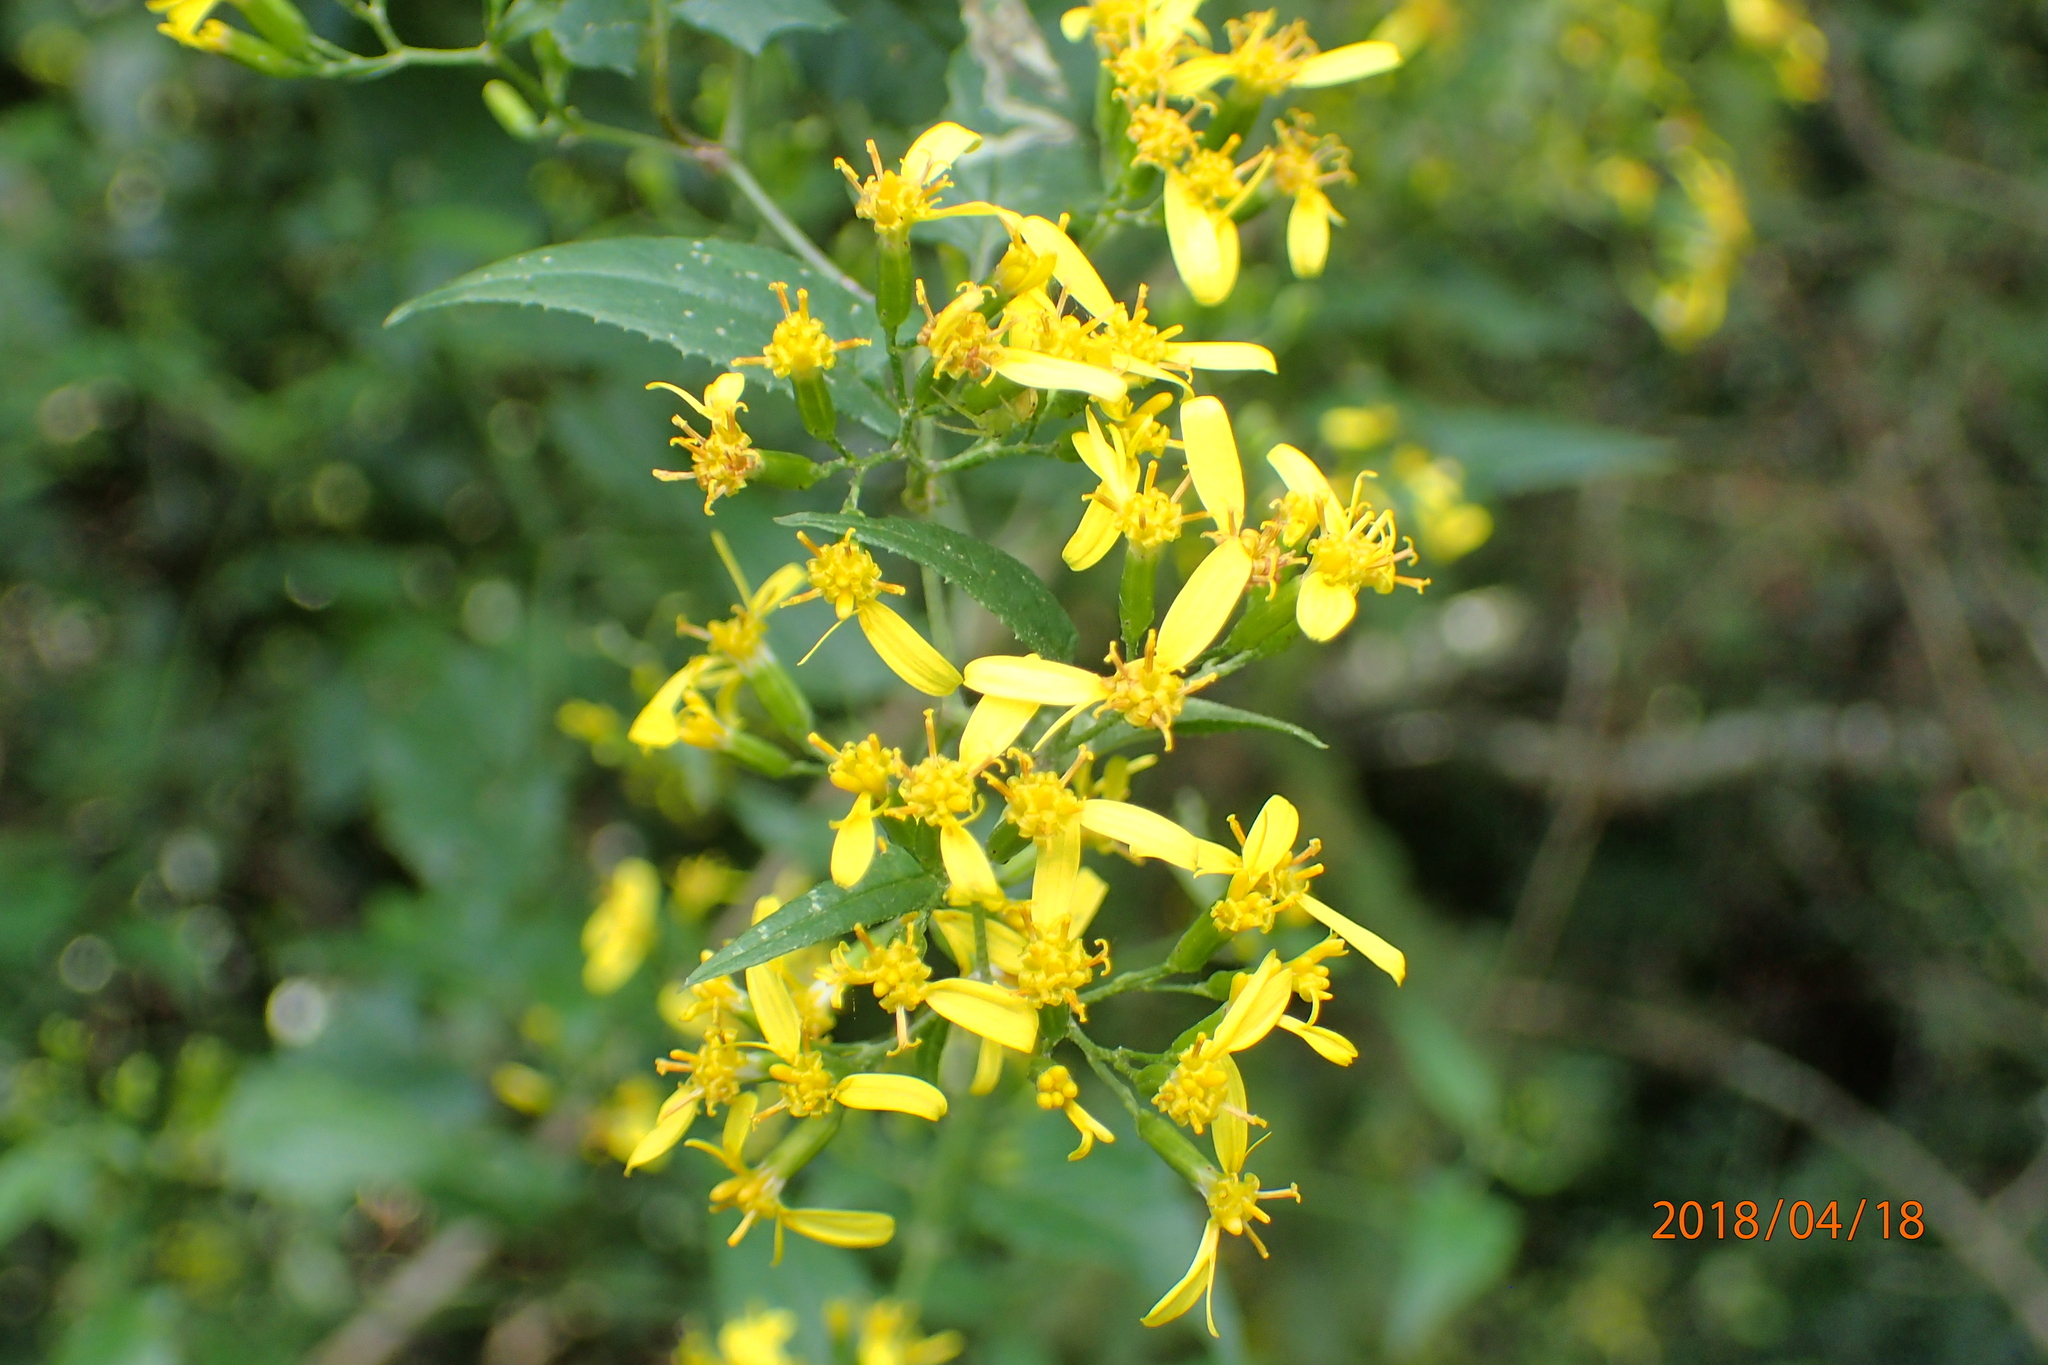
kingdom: Plantae
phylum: Tracheophyta
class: Magnoliopsida
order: Asterales
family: Asteraceae
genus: Senecio
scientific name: Senecio deltoideus
